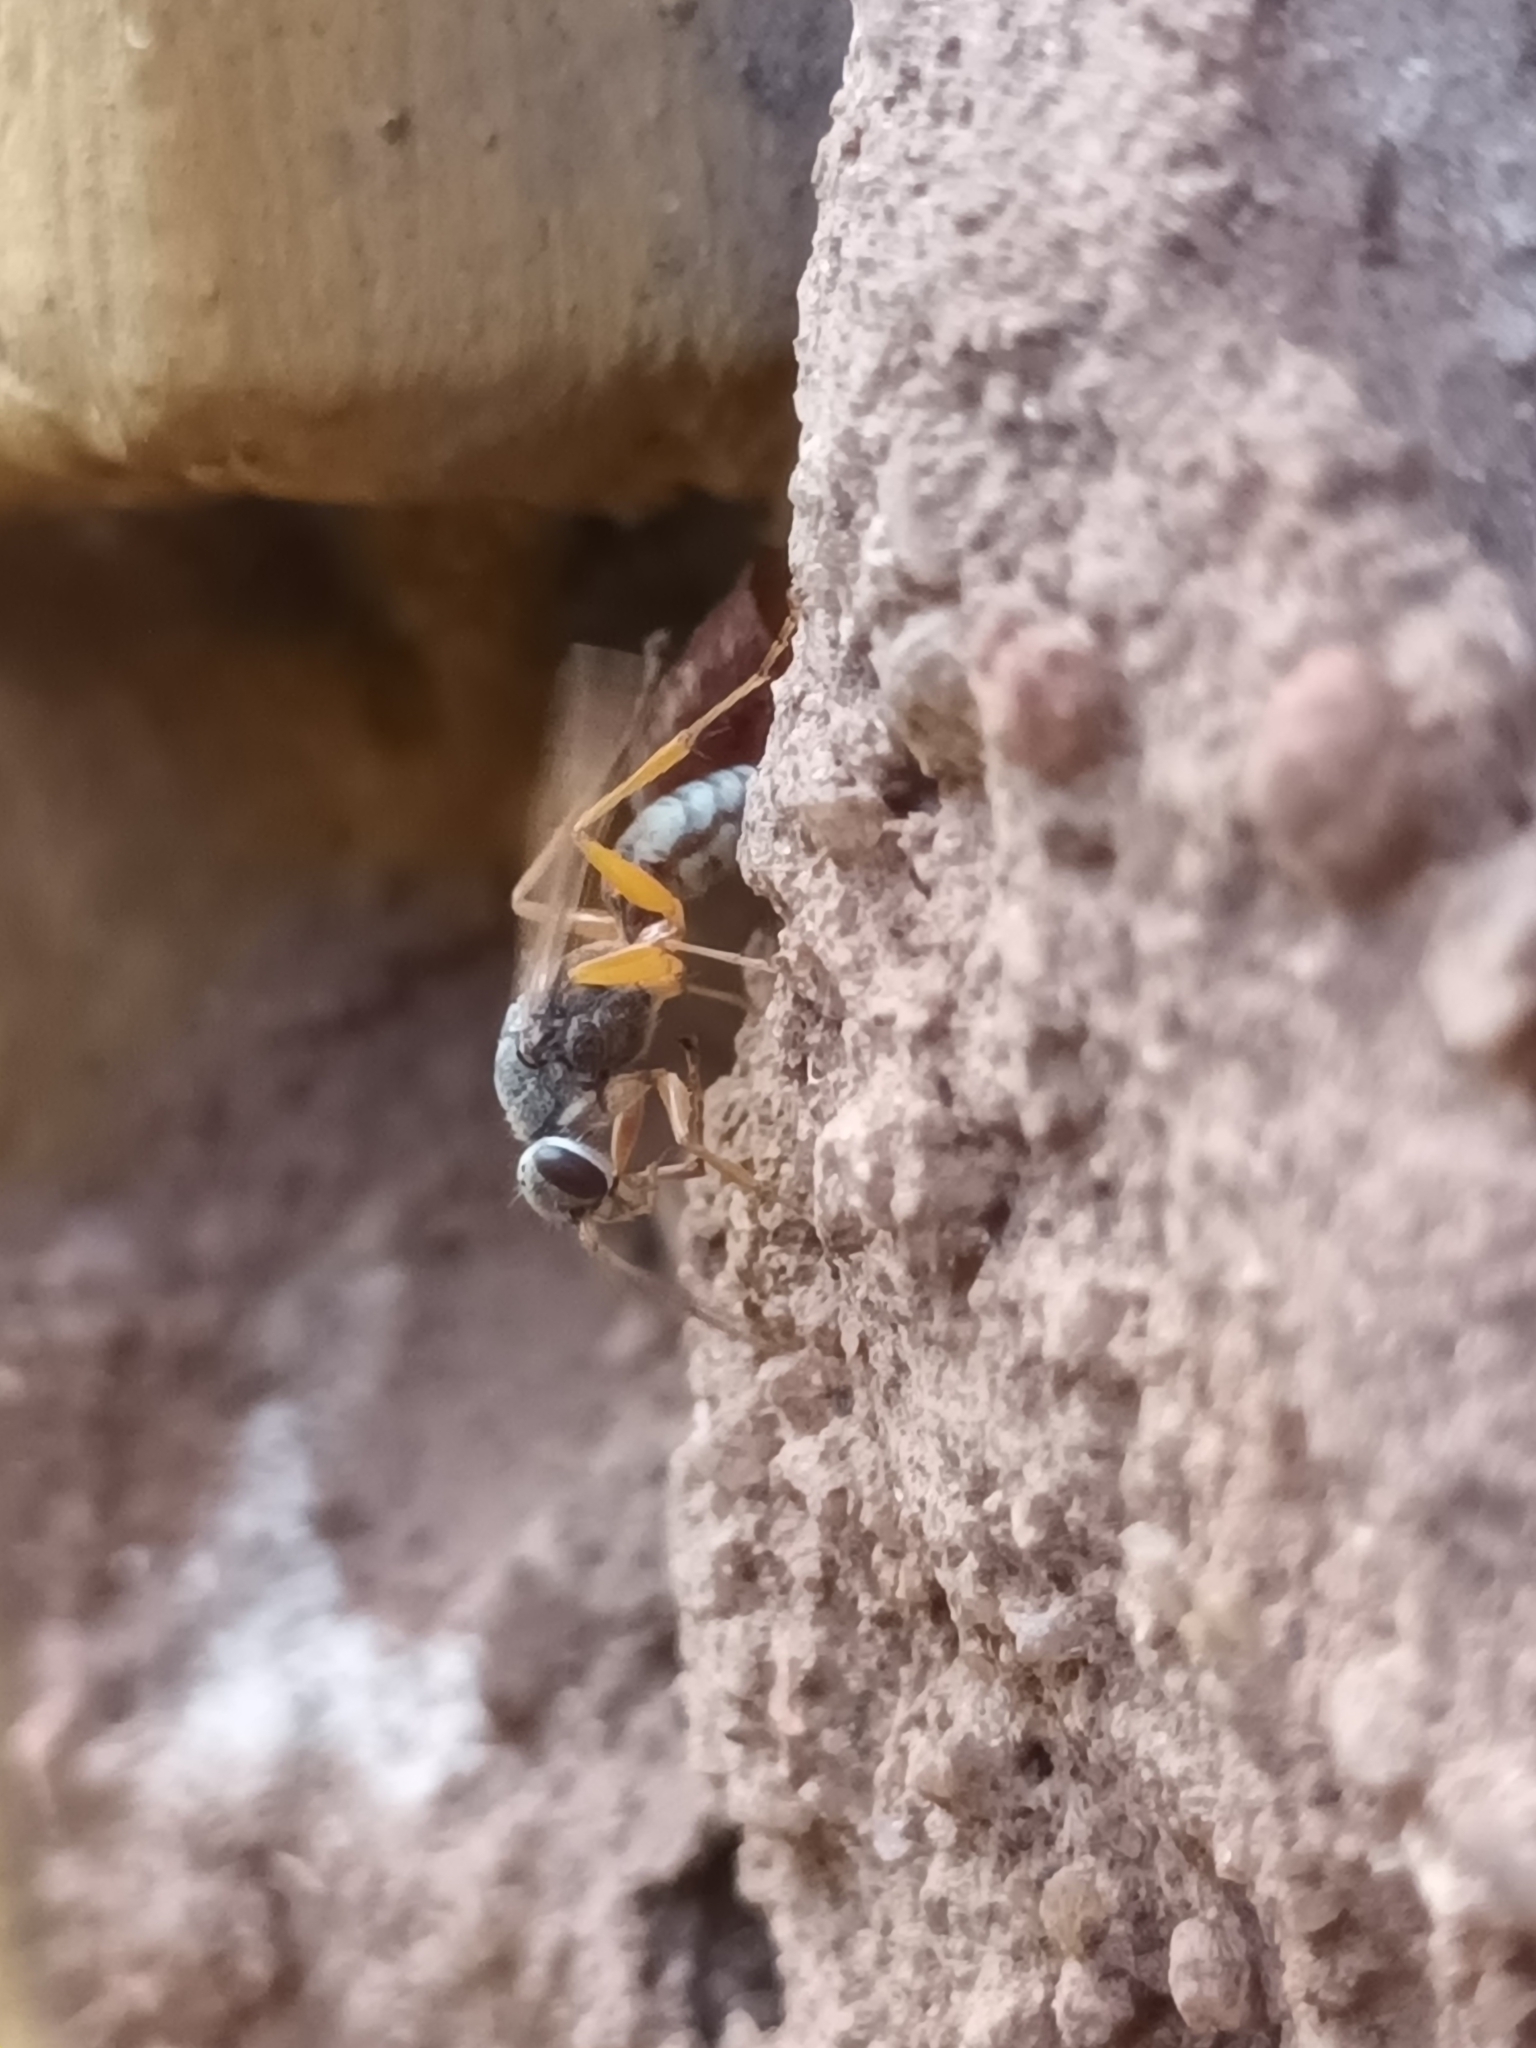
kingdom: Animalia
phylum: Arthropoda
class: Insecta
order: Hymenoptera
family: Pompilidae
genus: Machaerothrix
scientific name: Machaerothrix salticidus
